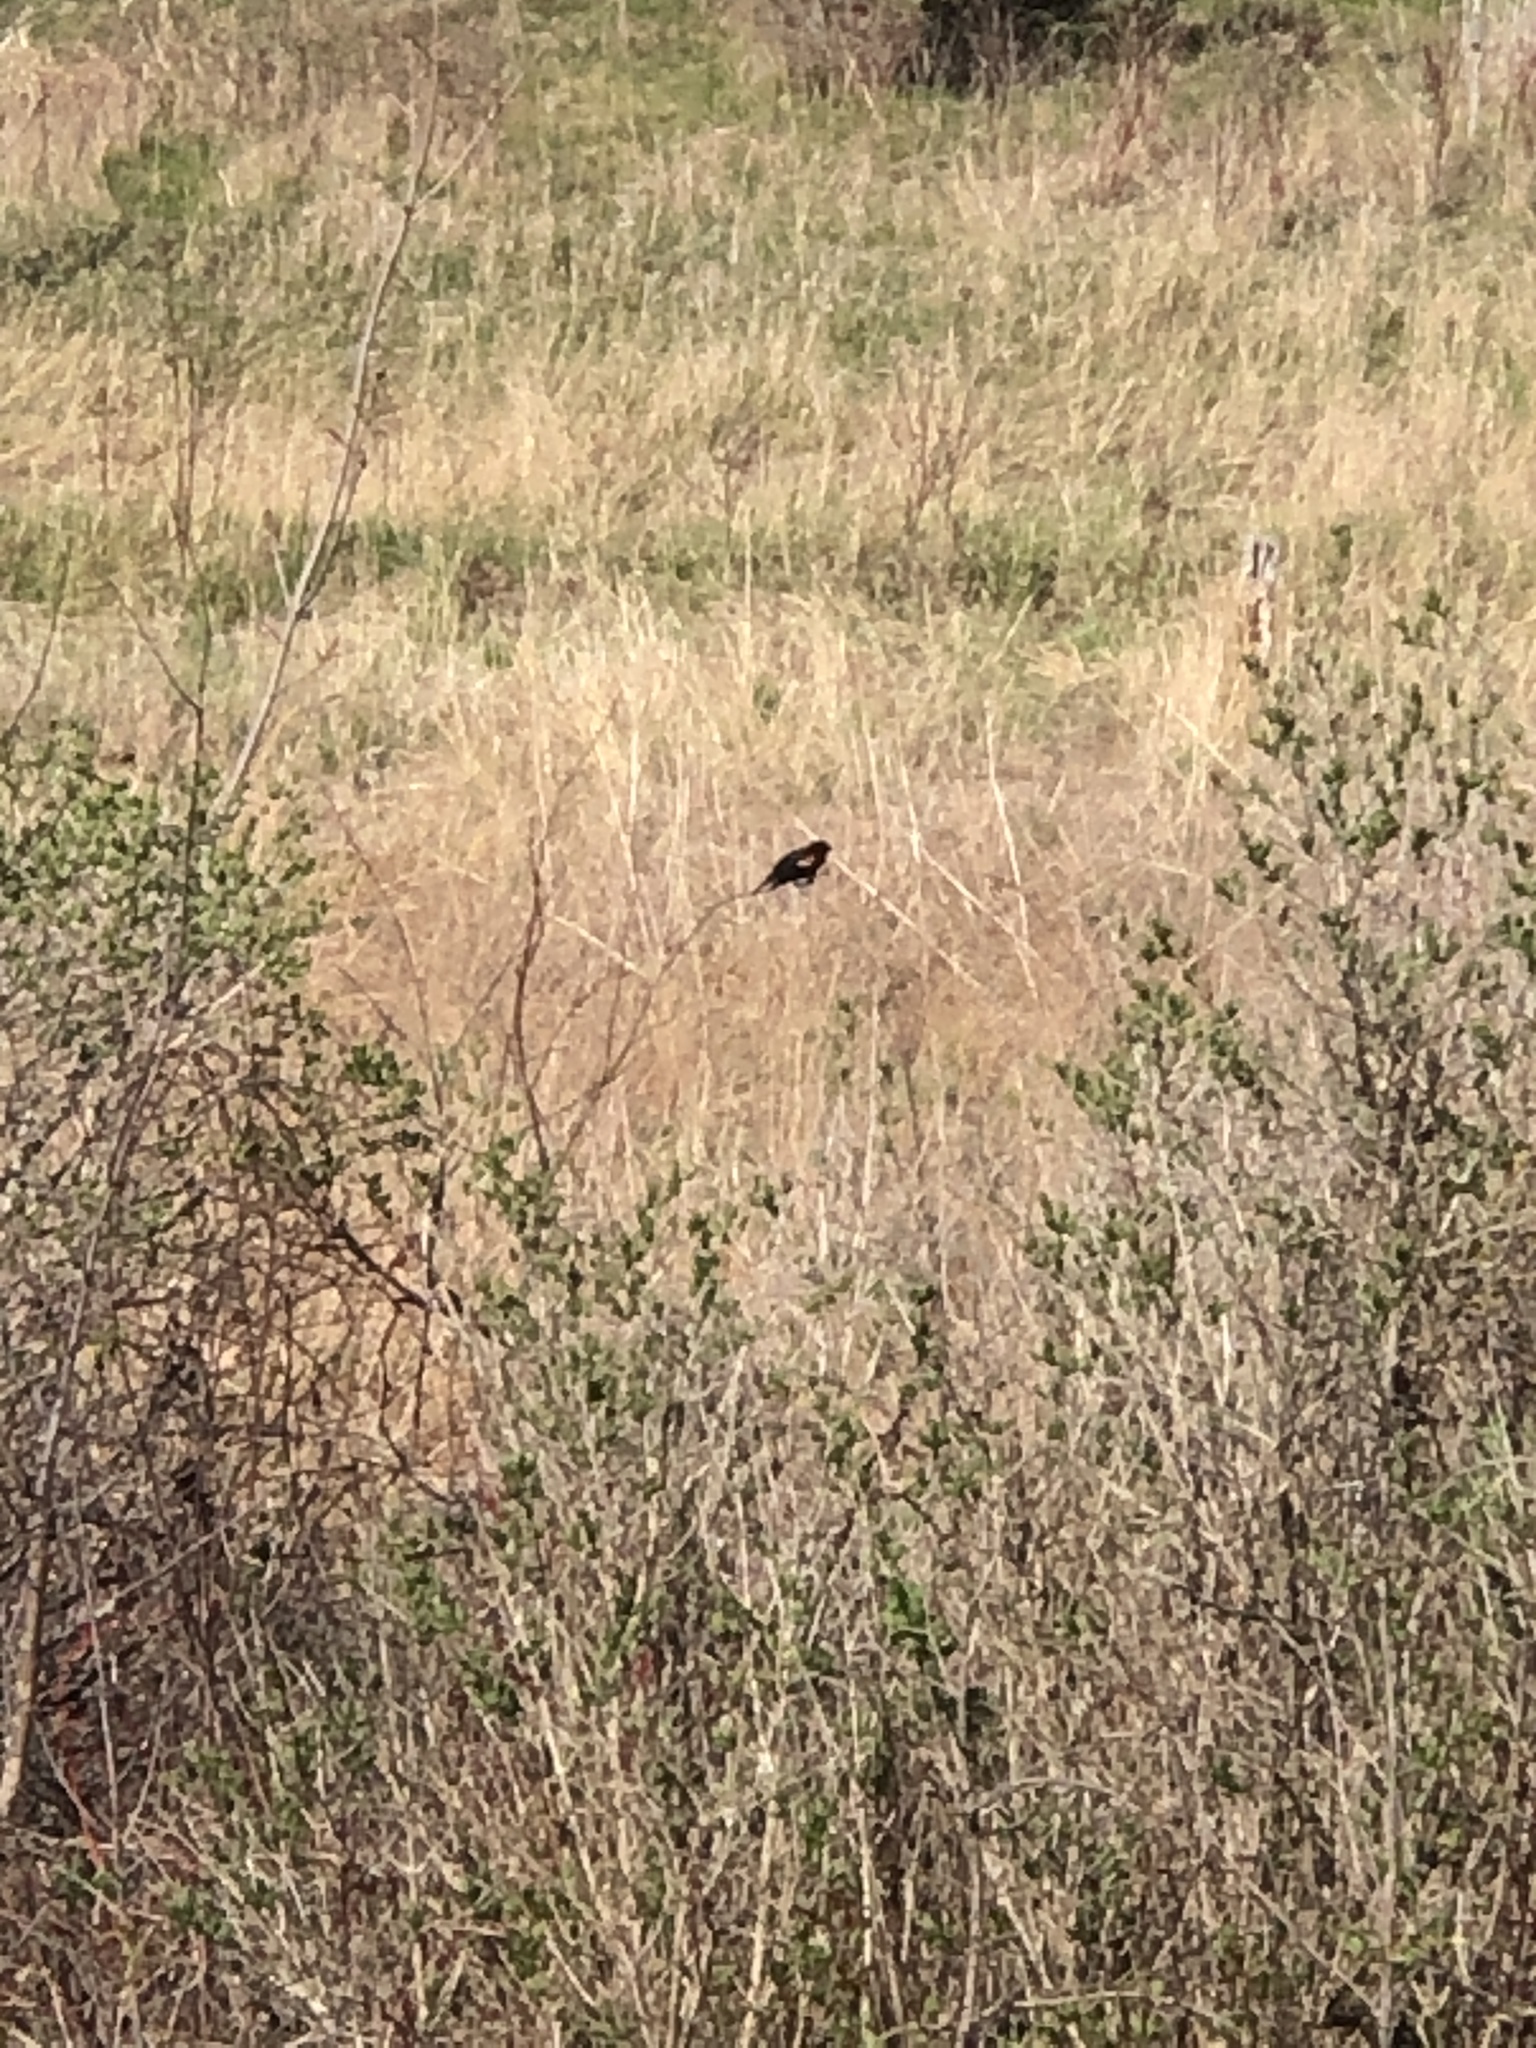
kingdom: Animalia
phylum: Chordata
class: Aves
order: Passeriformes
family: Icteridae
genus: Agelaius
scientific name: Agelaius phoeniceus
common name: Red-winged blackbird
